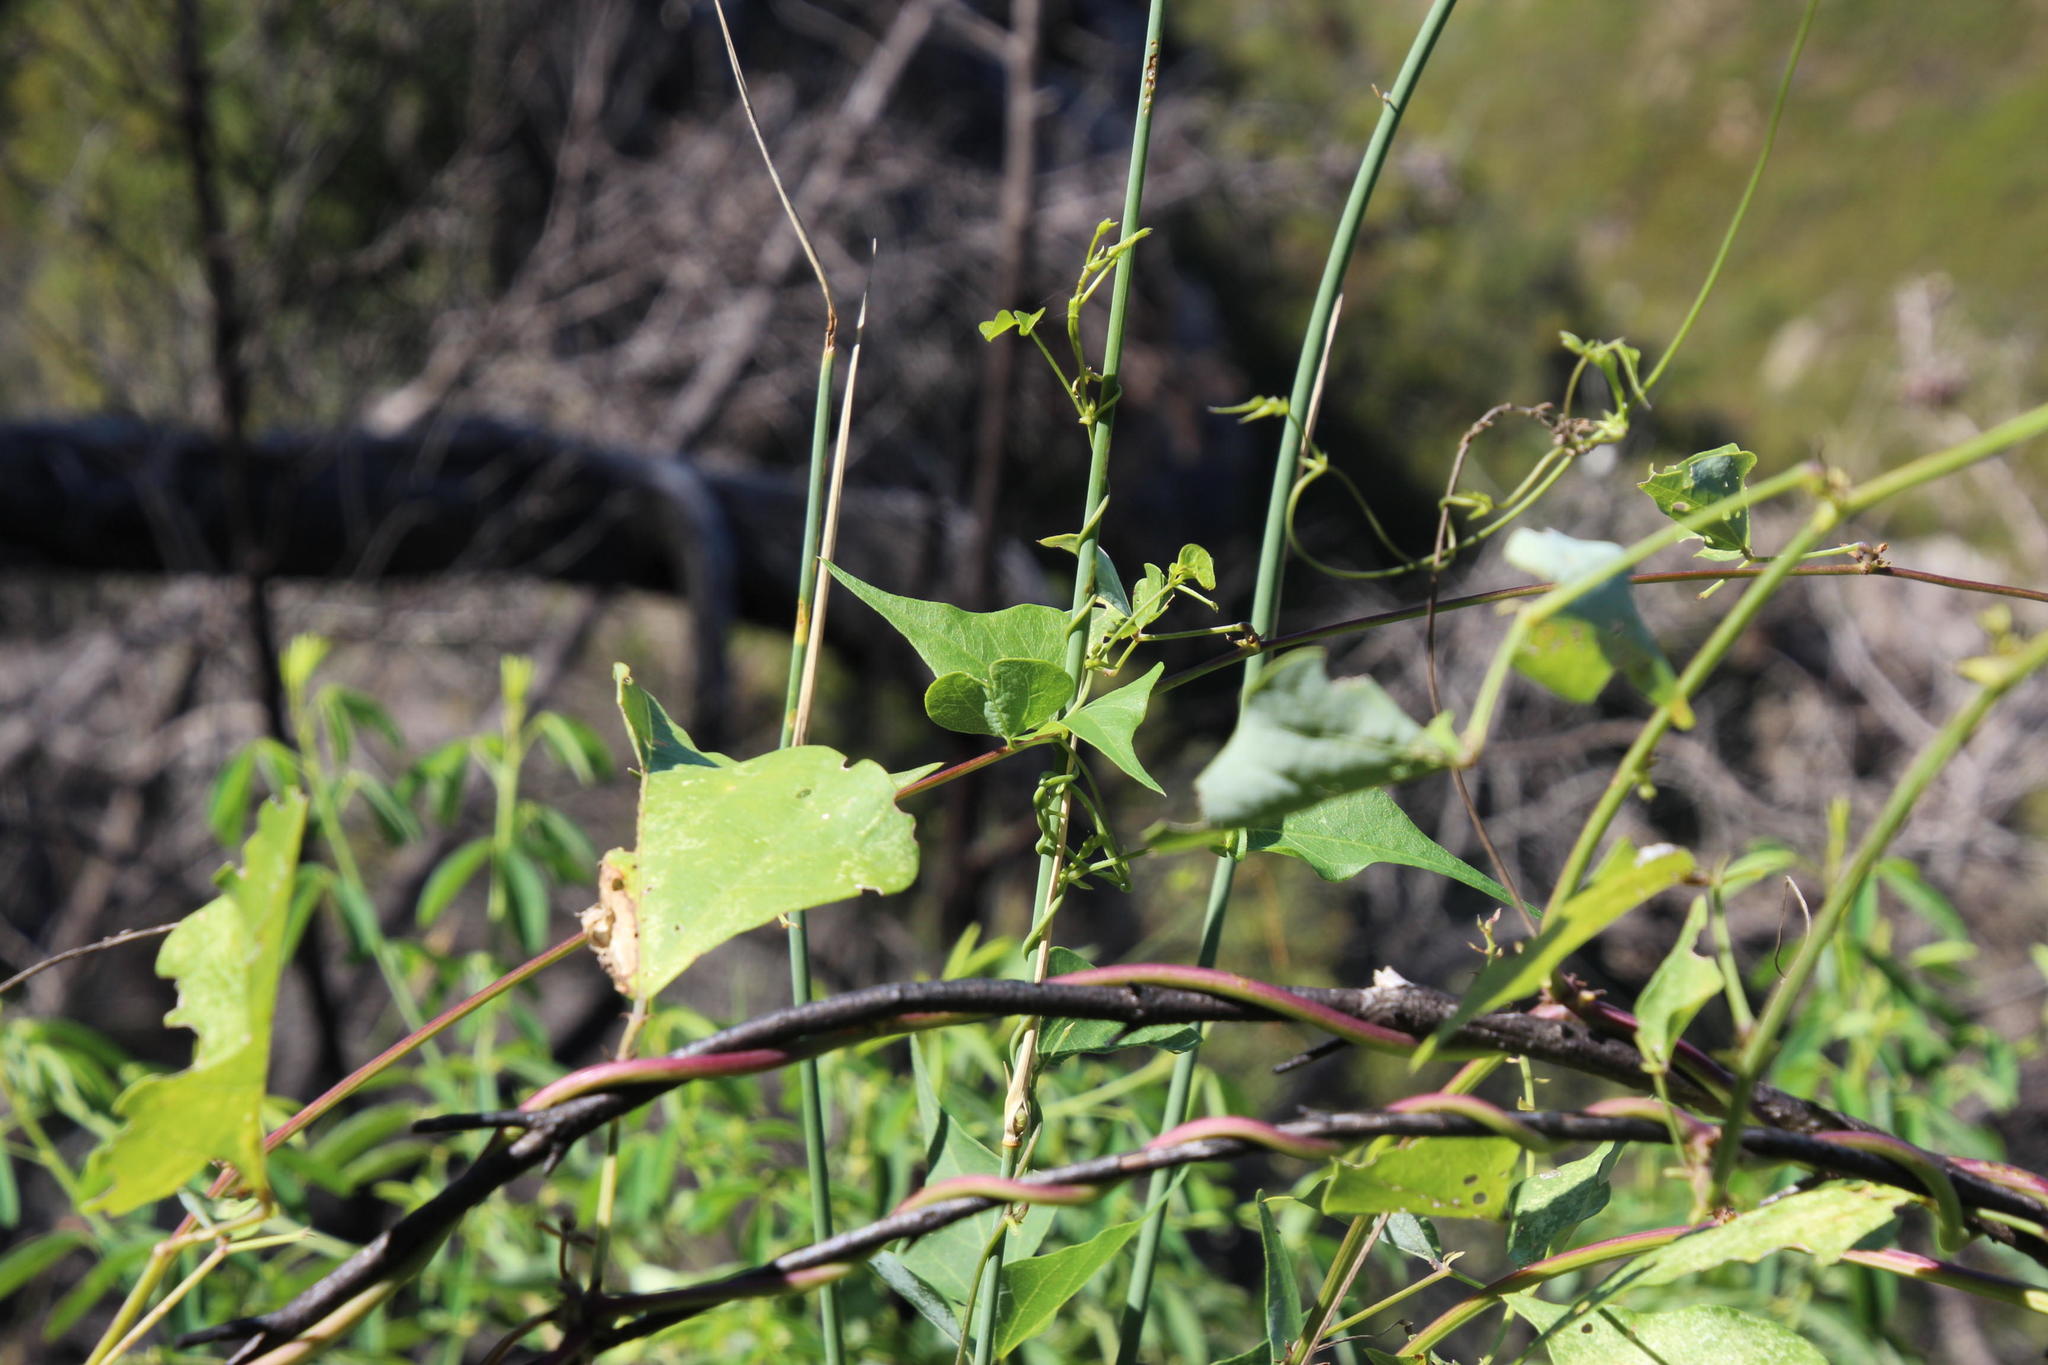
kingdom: Plantae
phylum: Tracheophyta
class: Magnoliopsida
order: Fabales
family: Fabaceae
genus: Dipogon
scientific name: Dipogon lignosus
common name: Okie bean
